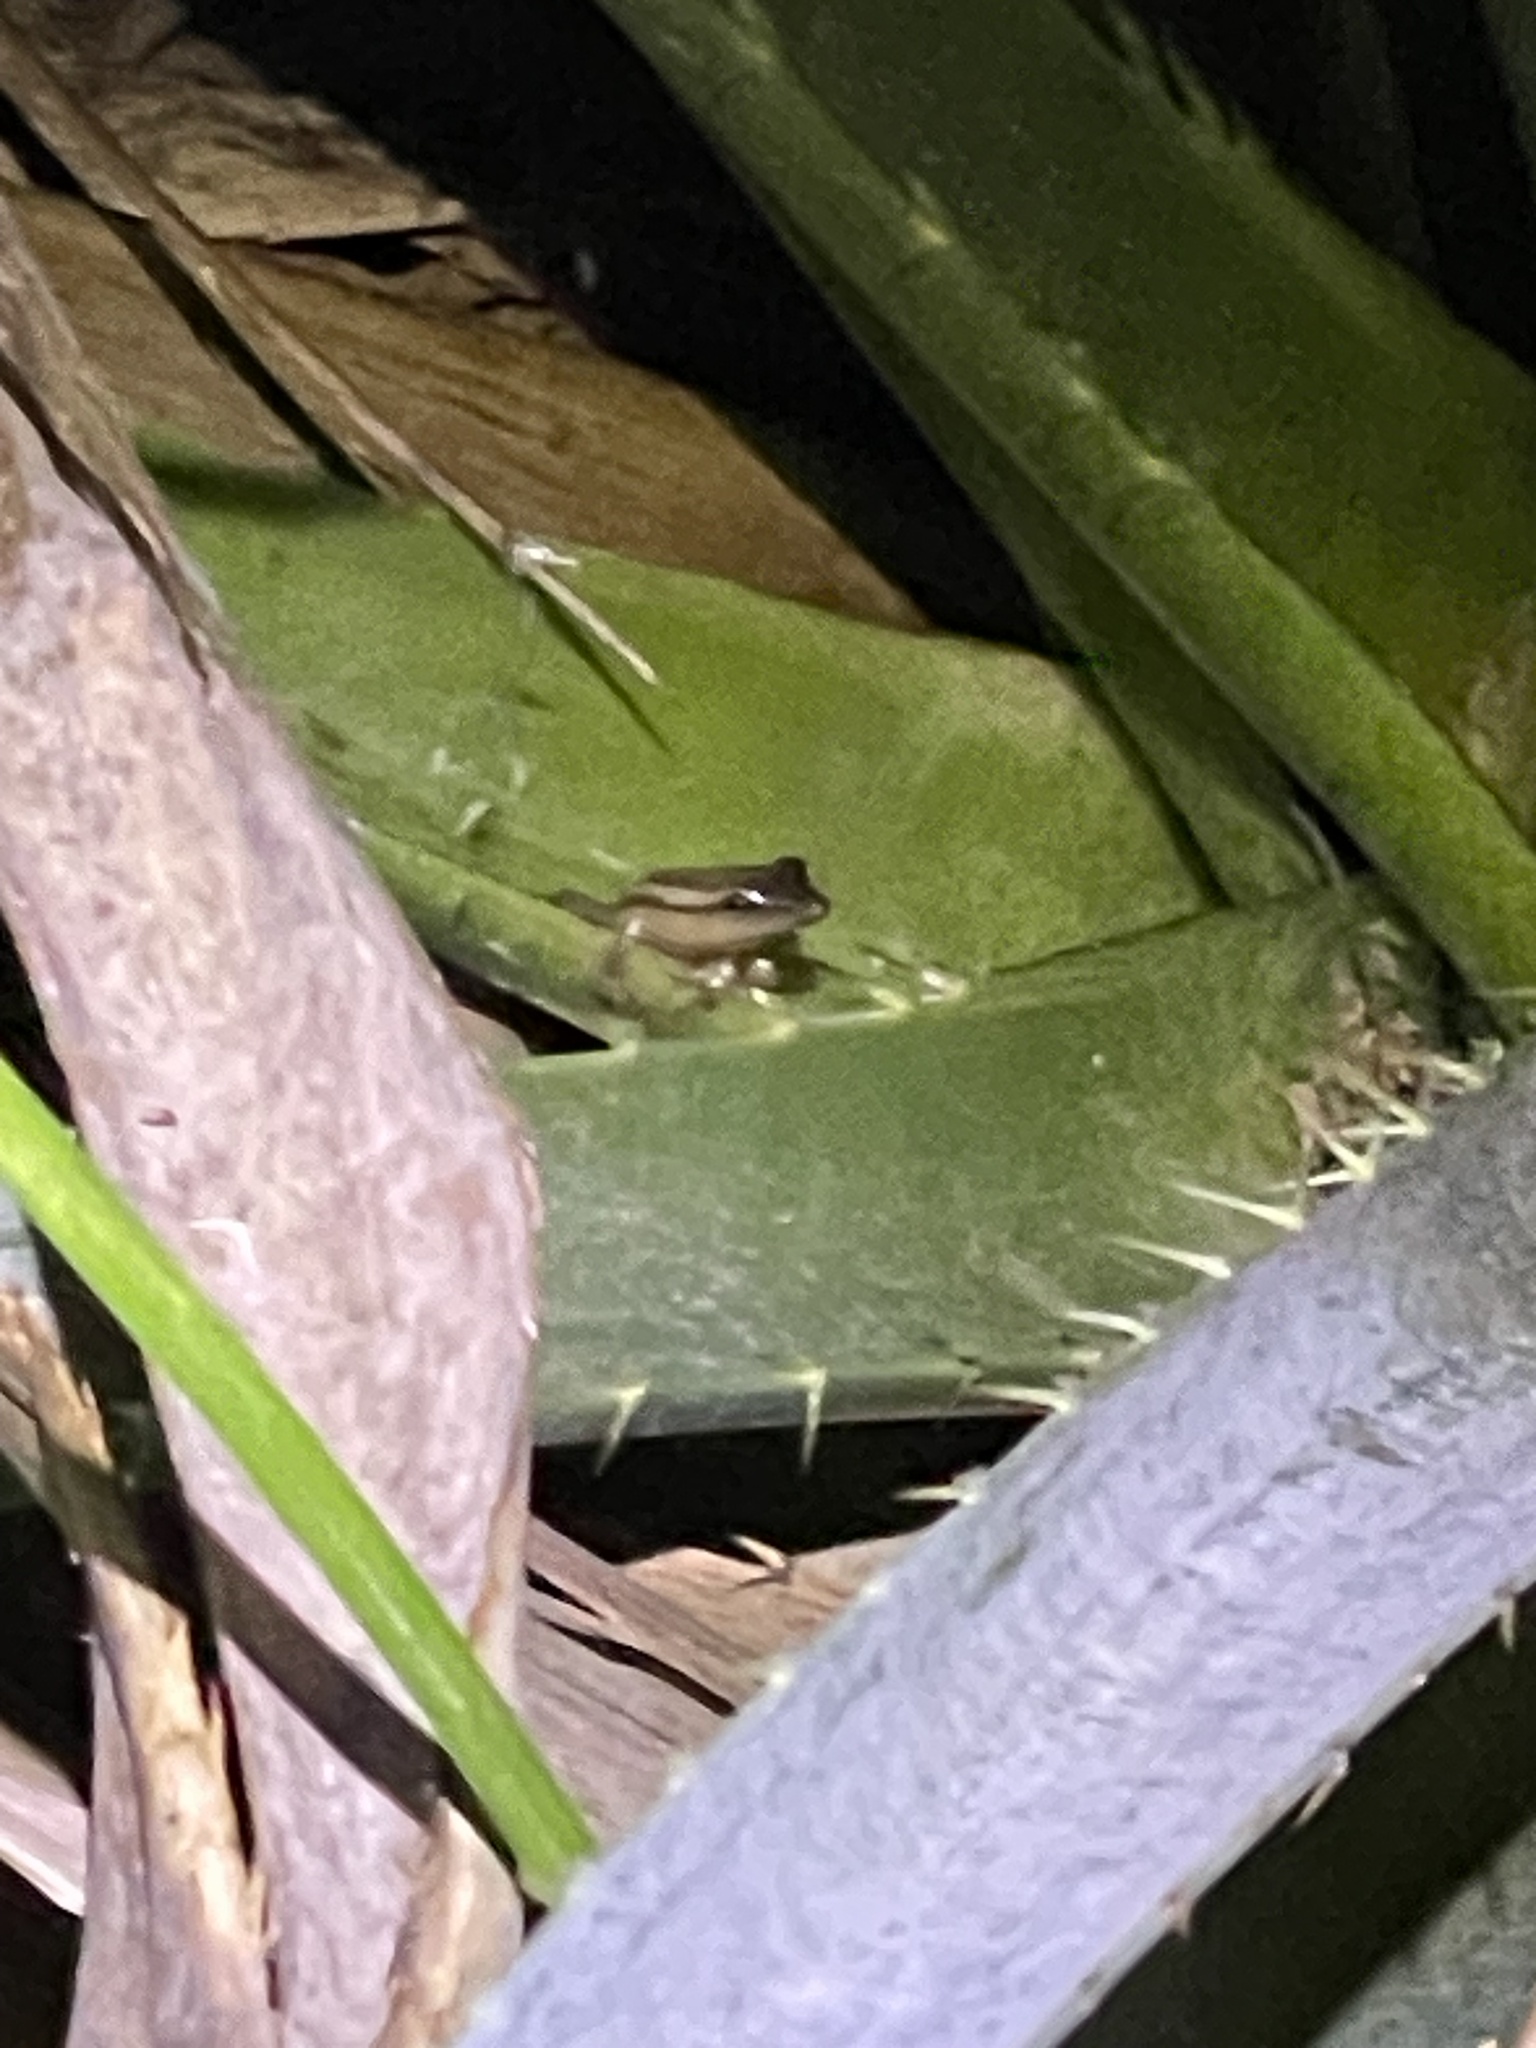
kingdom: Animalia
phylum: Chordata
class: Amphibia
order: Anura
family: Hylidae
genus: Scinax
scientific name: Scinax squalirostris
